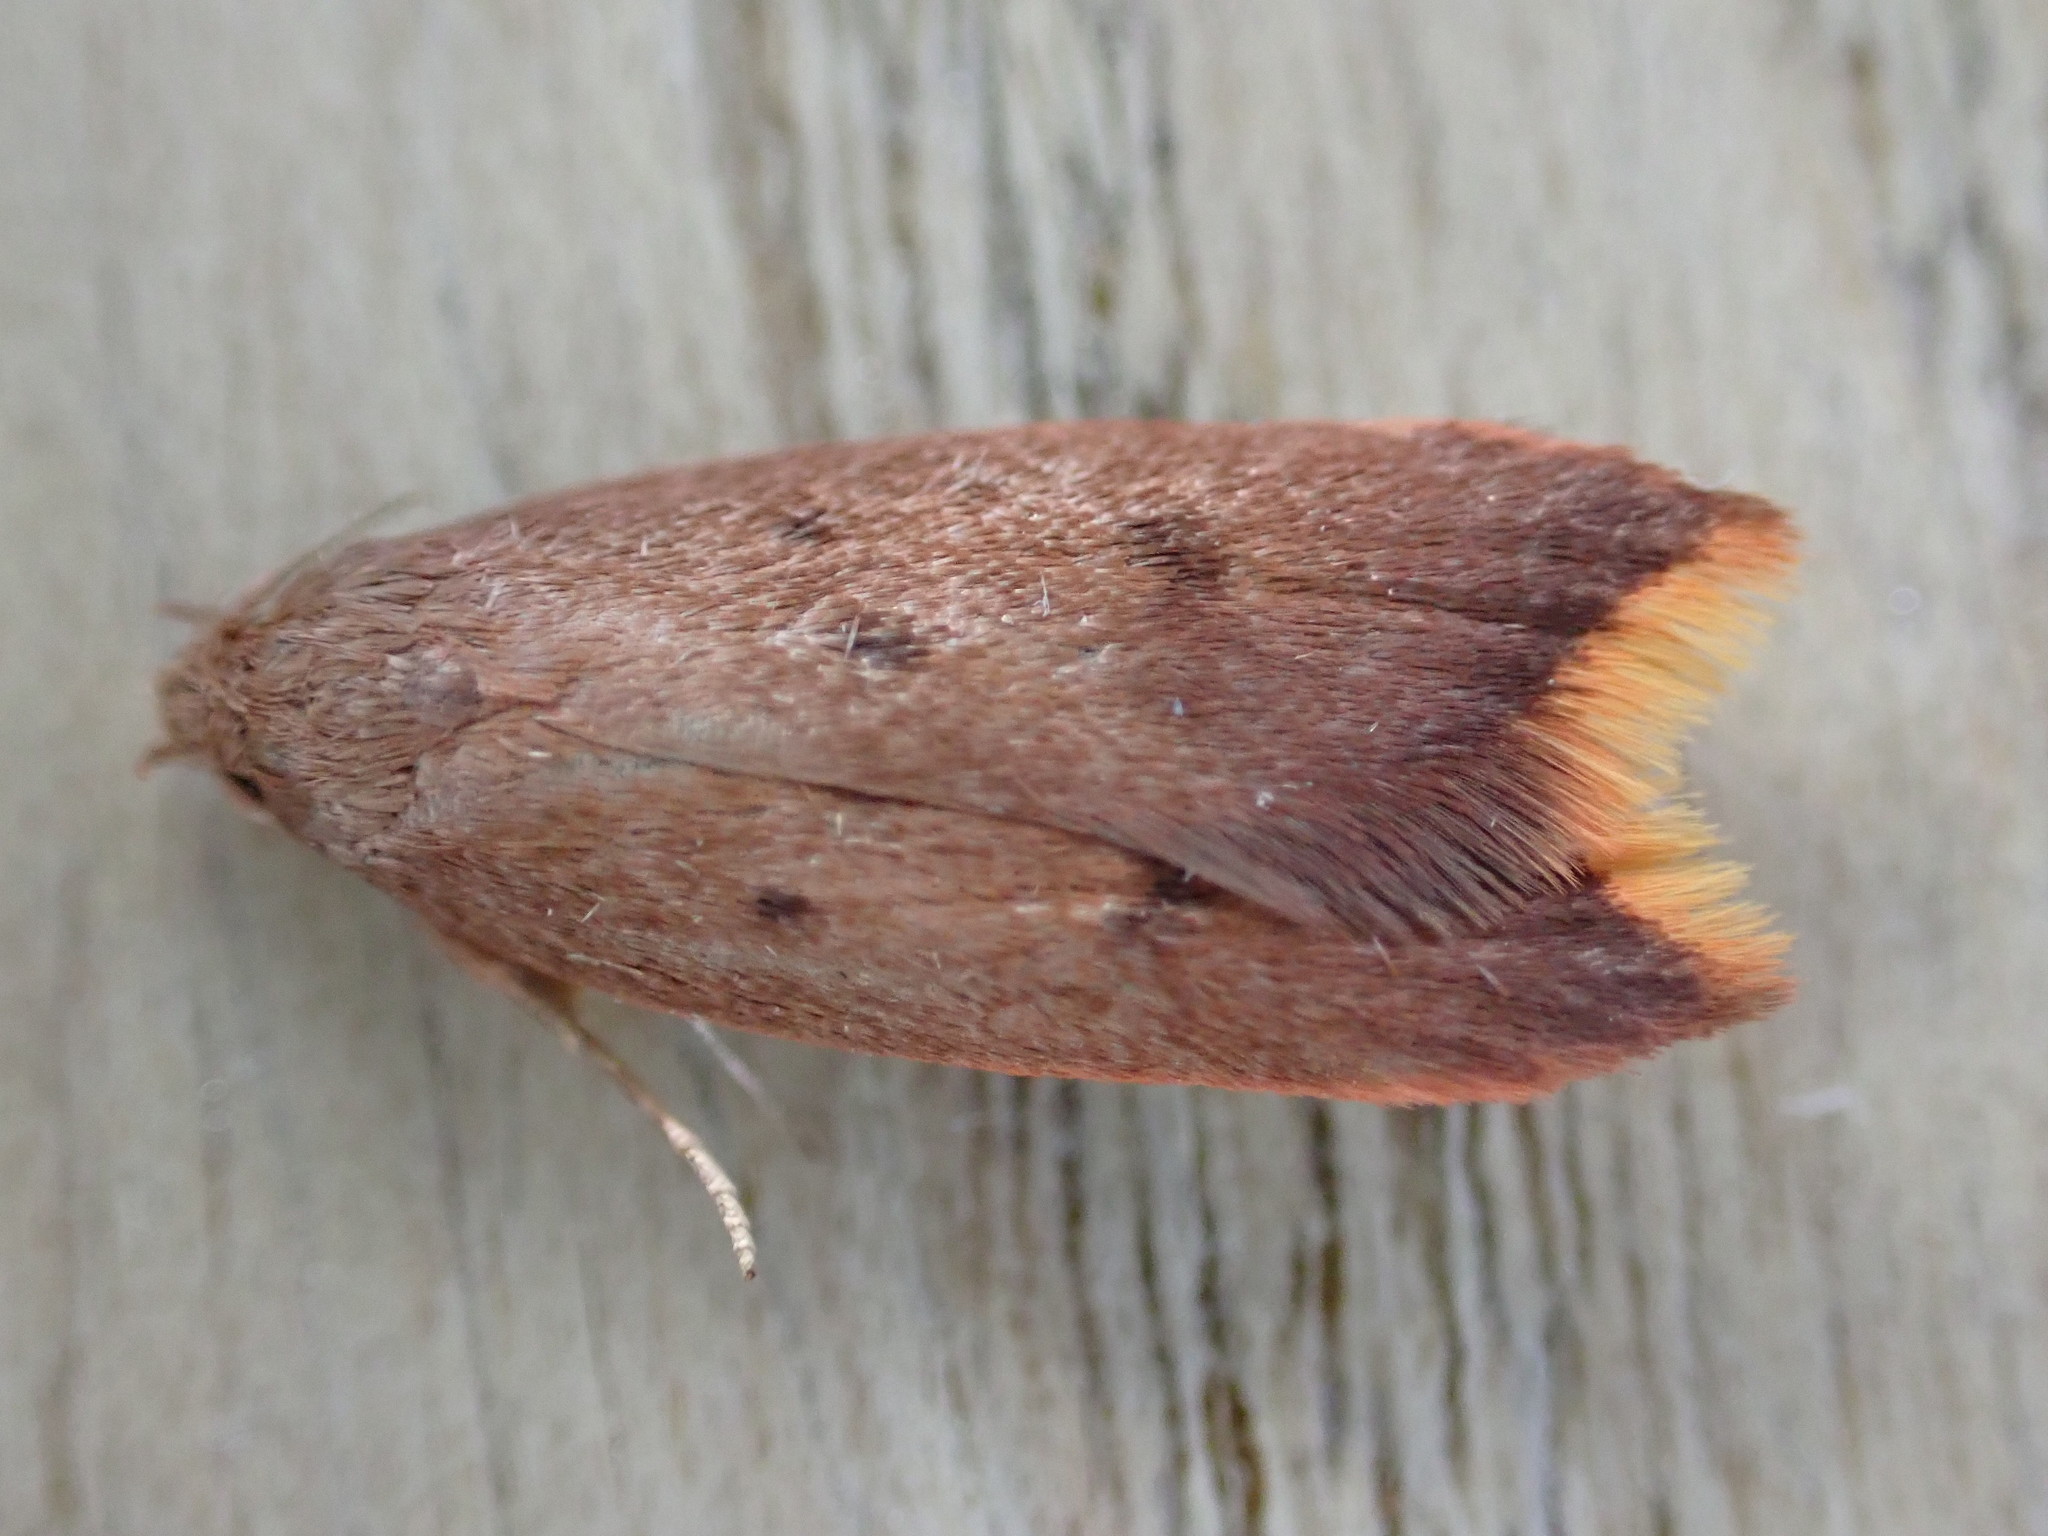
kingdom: Animalia
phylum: Arthropoda
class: Insecta
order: Lepidoptera
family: Oecophoridae
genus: Tachystola
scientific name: Tachystola acroxantha
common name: Ruddy streak
